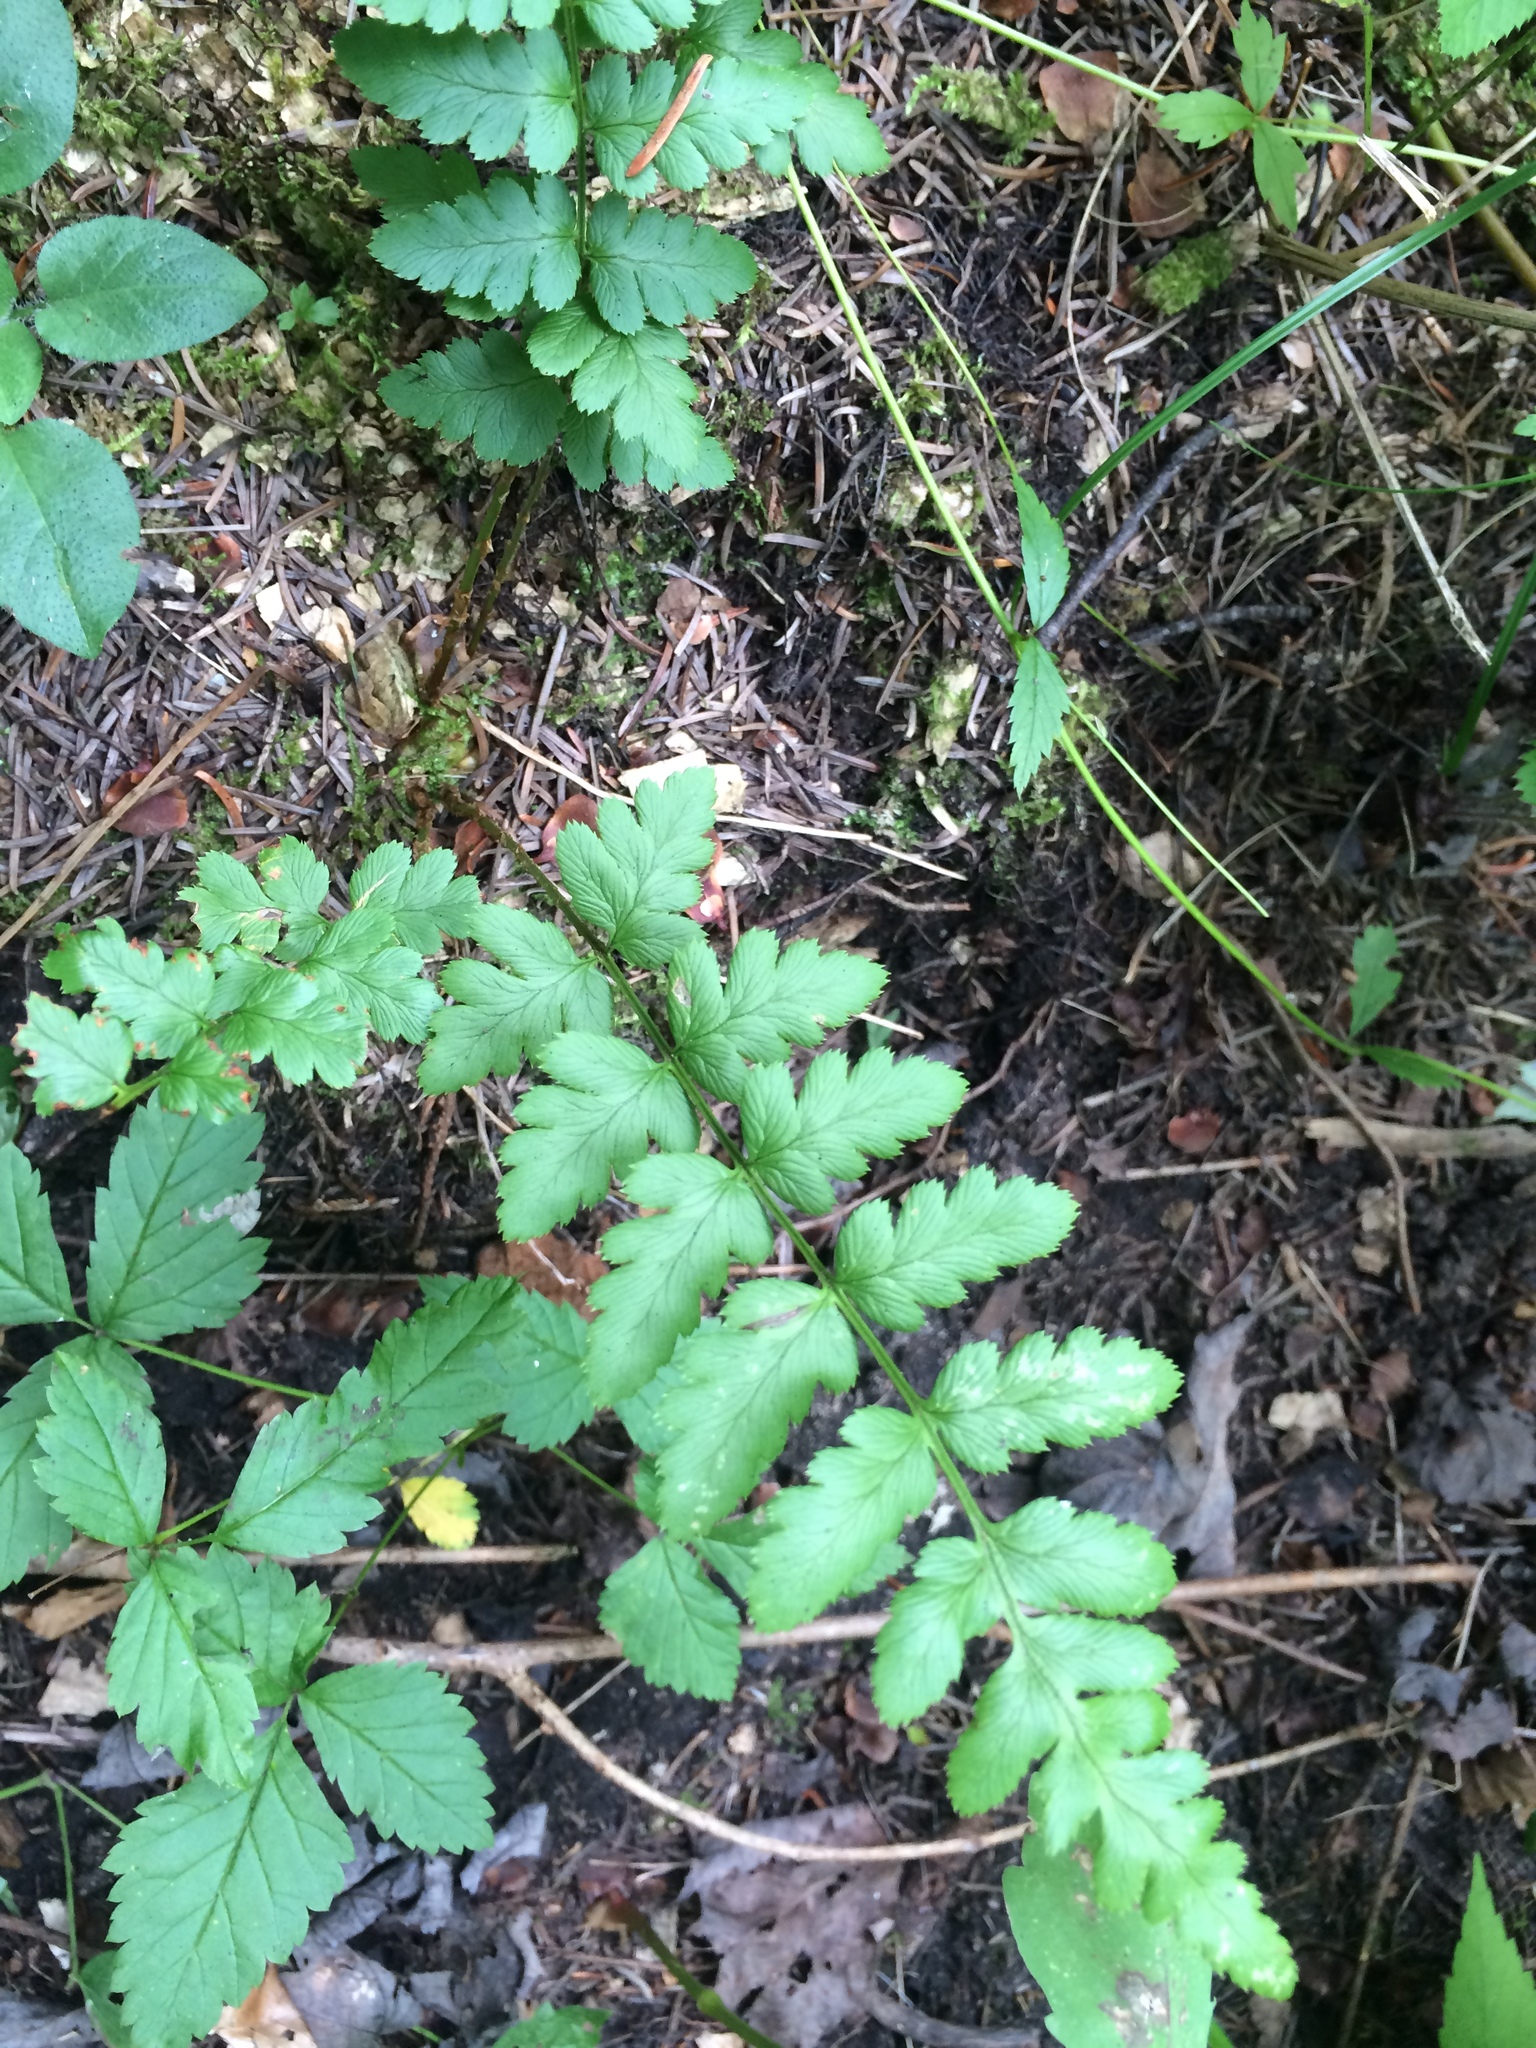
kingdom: Plantae
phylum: Tracheophyta
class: Polypodiopsida
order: Polypodiales
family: Dryopteridaceae
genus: Dryopteris
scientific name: Dryopteris cristata
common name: Crested wood fern
